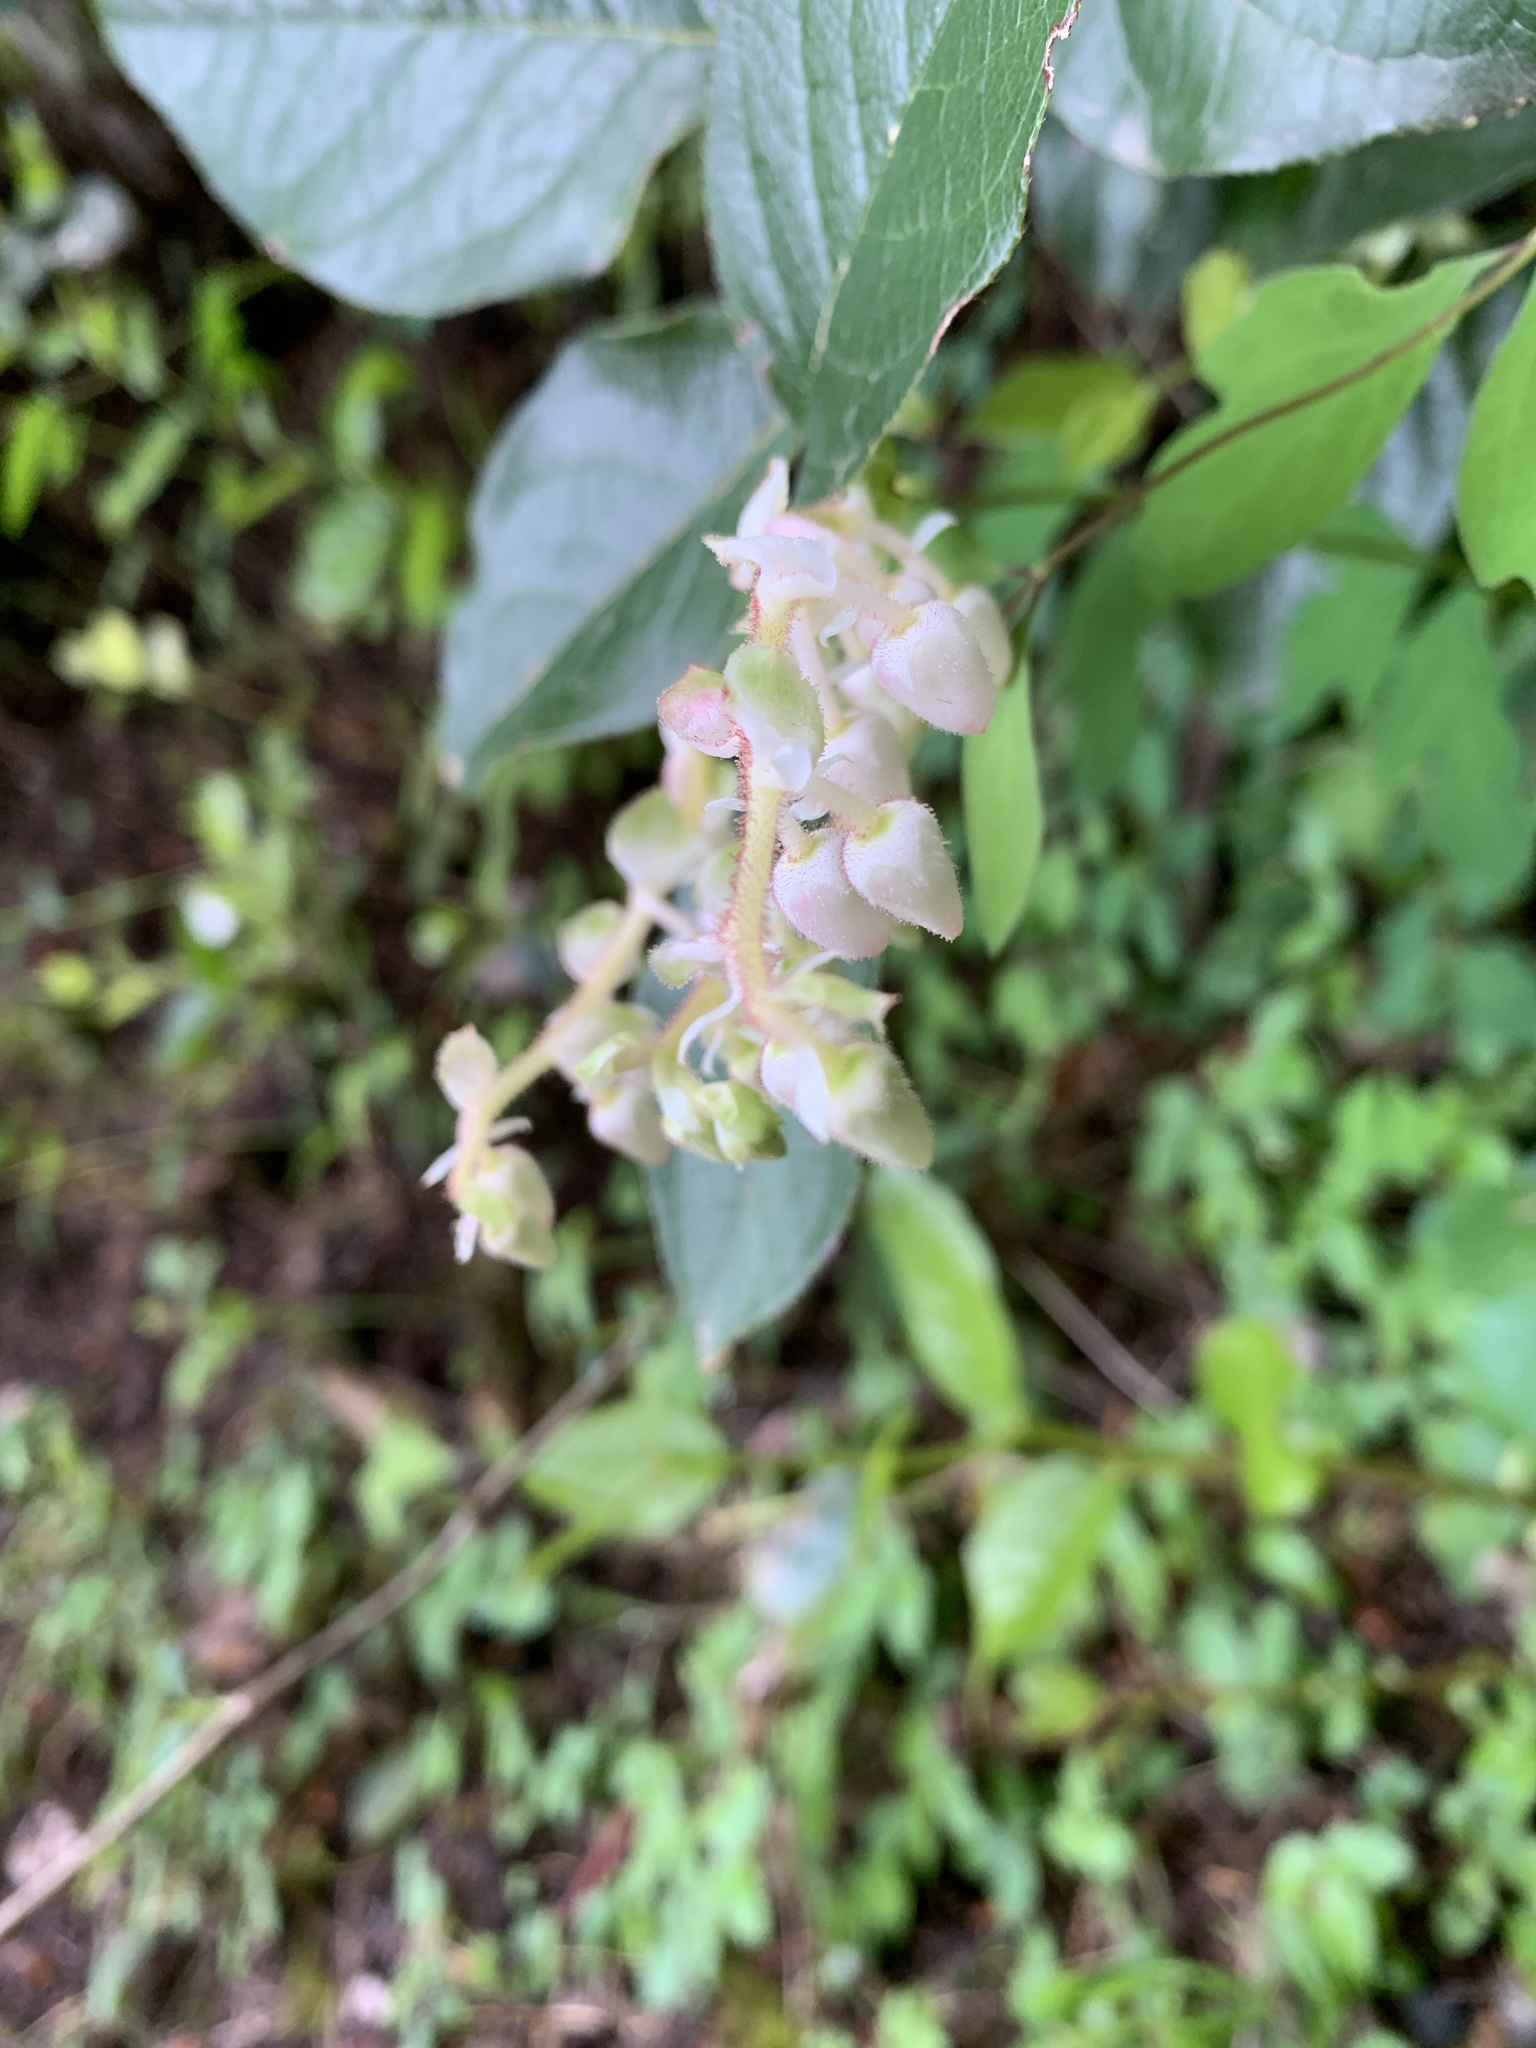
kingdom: Plantae
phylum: Tracheophyta
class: Magnoliopsida
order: Ericales
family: Ericaceae
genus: Gaultheria
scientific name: Gaultheria shallon
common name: Shallon
